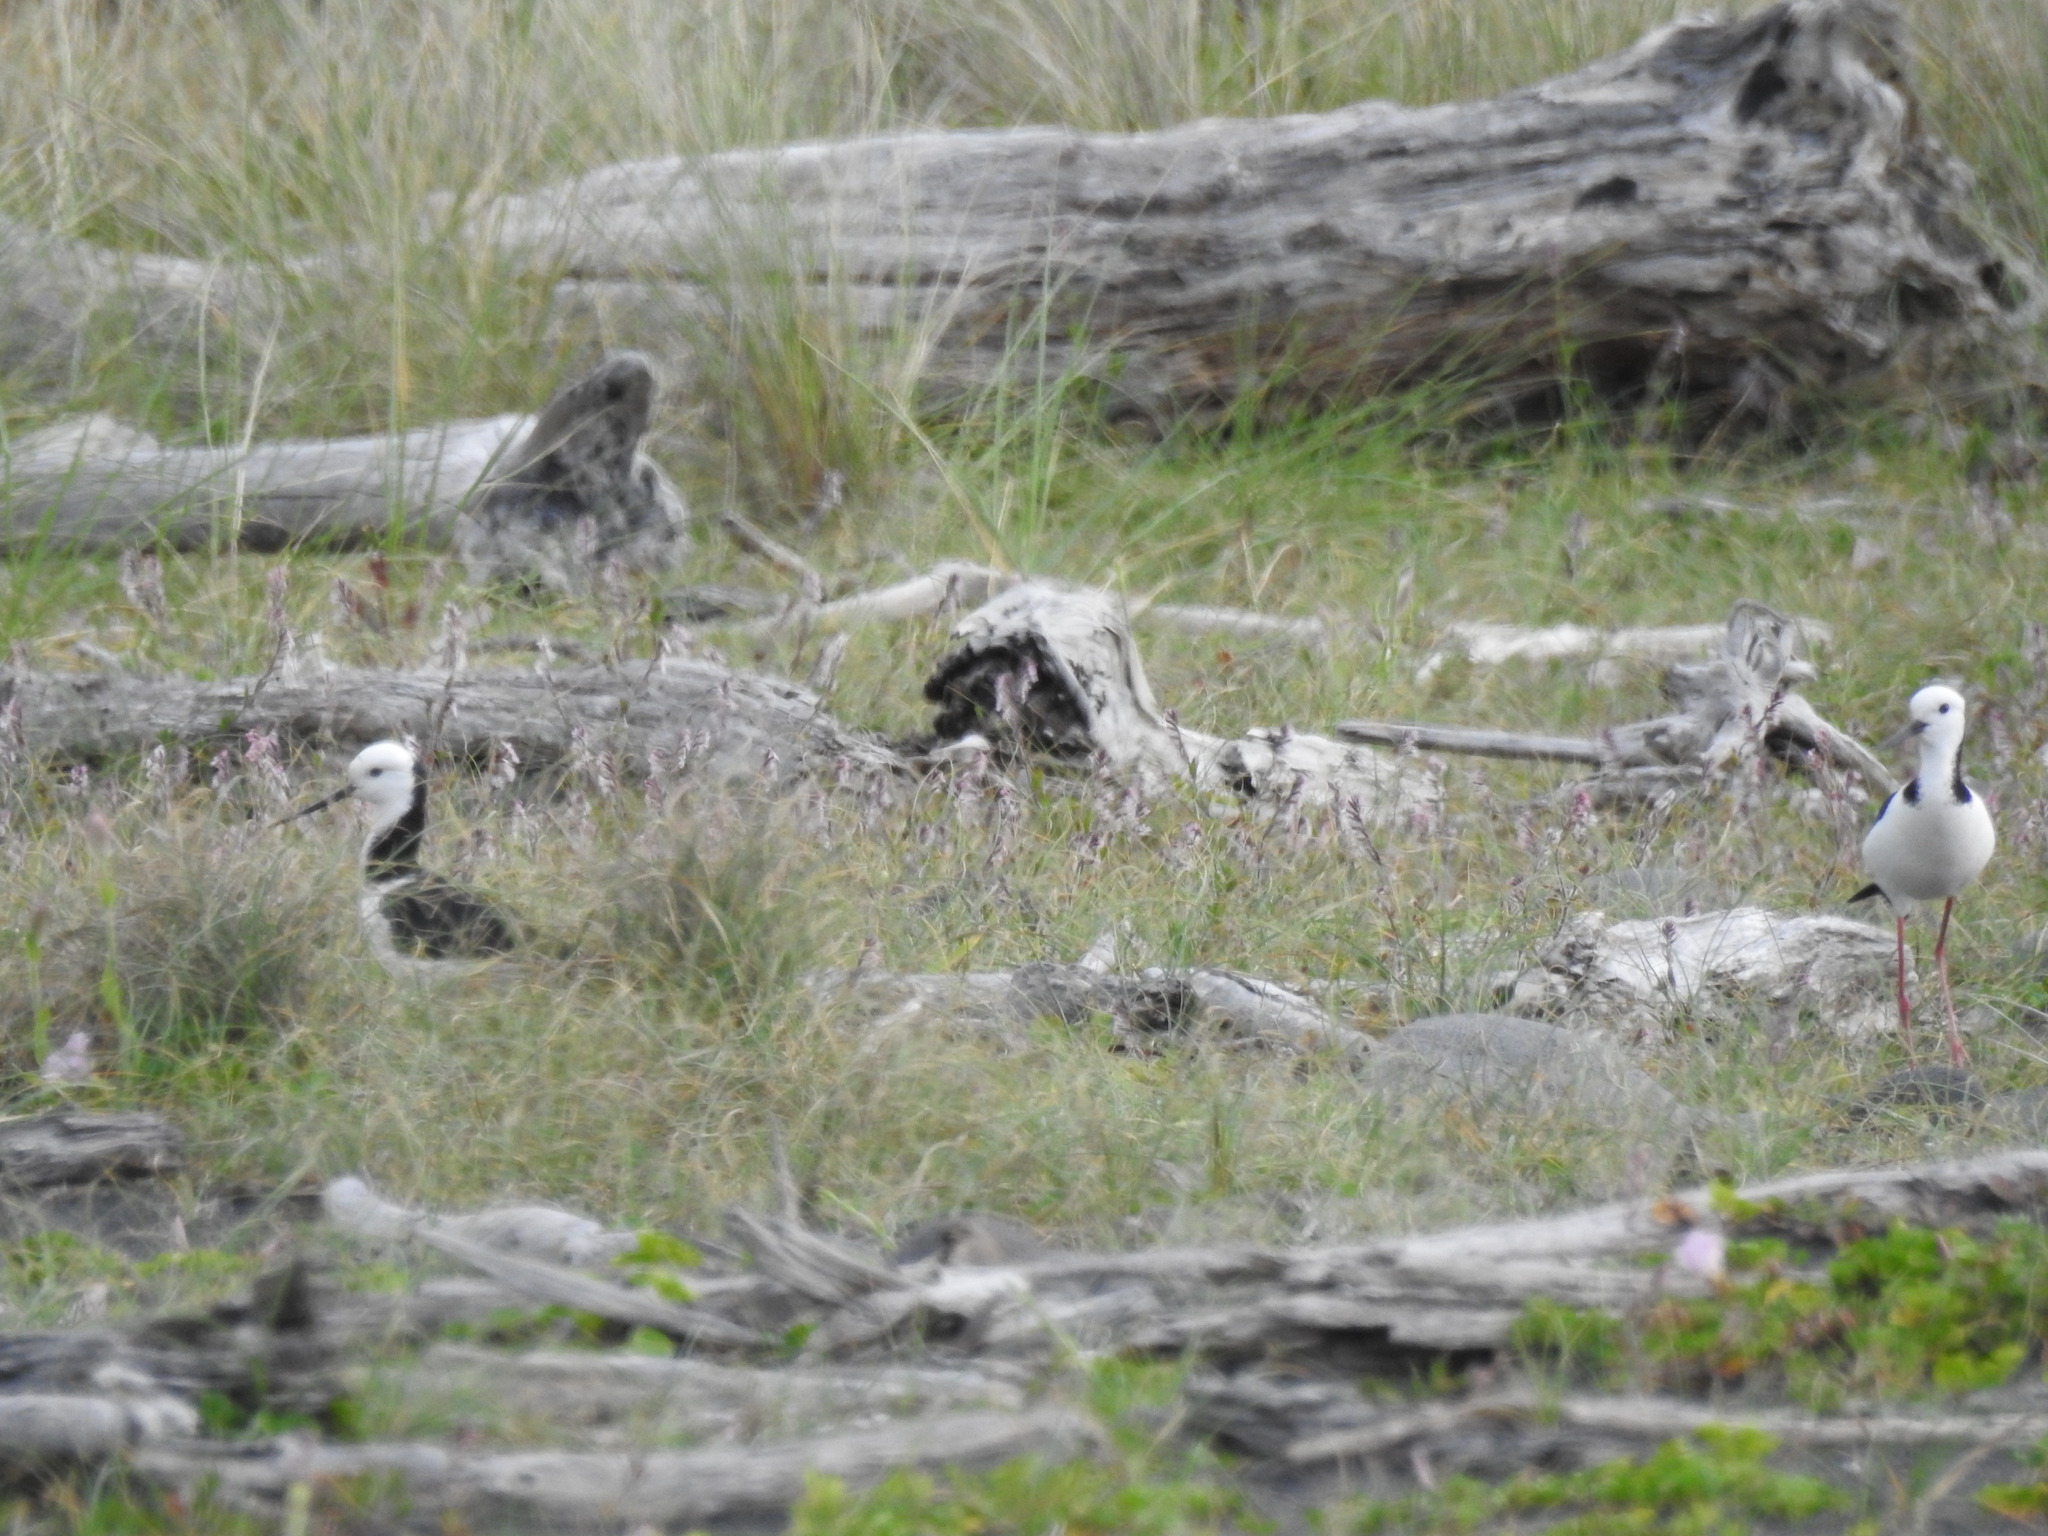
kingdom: Animalia
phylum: Chordata
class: Aves
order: Charadriiformes
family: Recurvirostridae
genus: Himantopus
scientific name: Himantopus leucocephalus
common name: White-headed stilt
